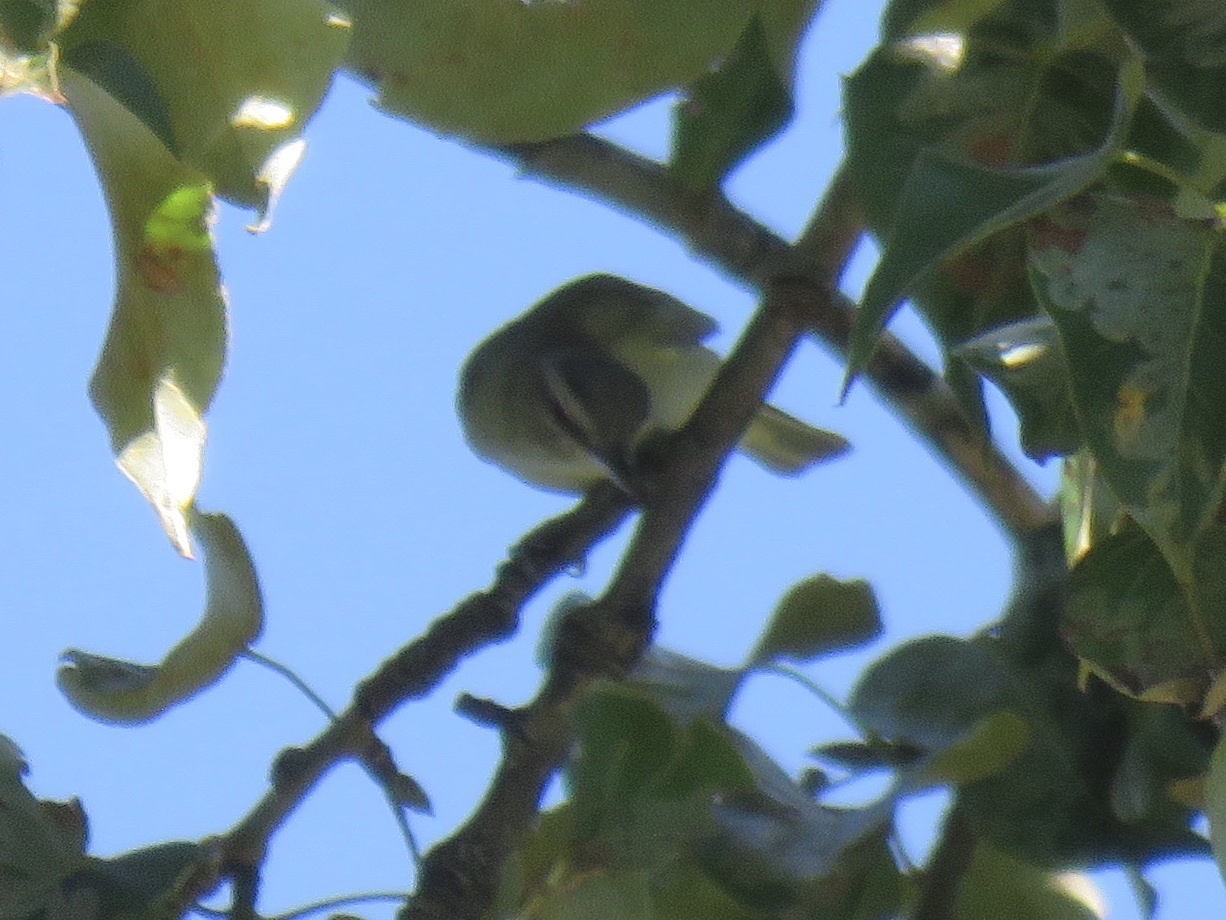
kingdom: Animalia
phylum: Chordata
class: Aves
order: Passeriformes
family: Vireonidae
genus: Vireo
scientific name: Vireo olivaceus
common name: Red-eyed vireo
